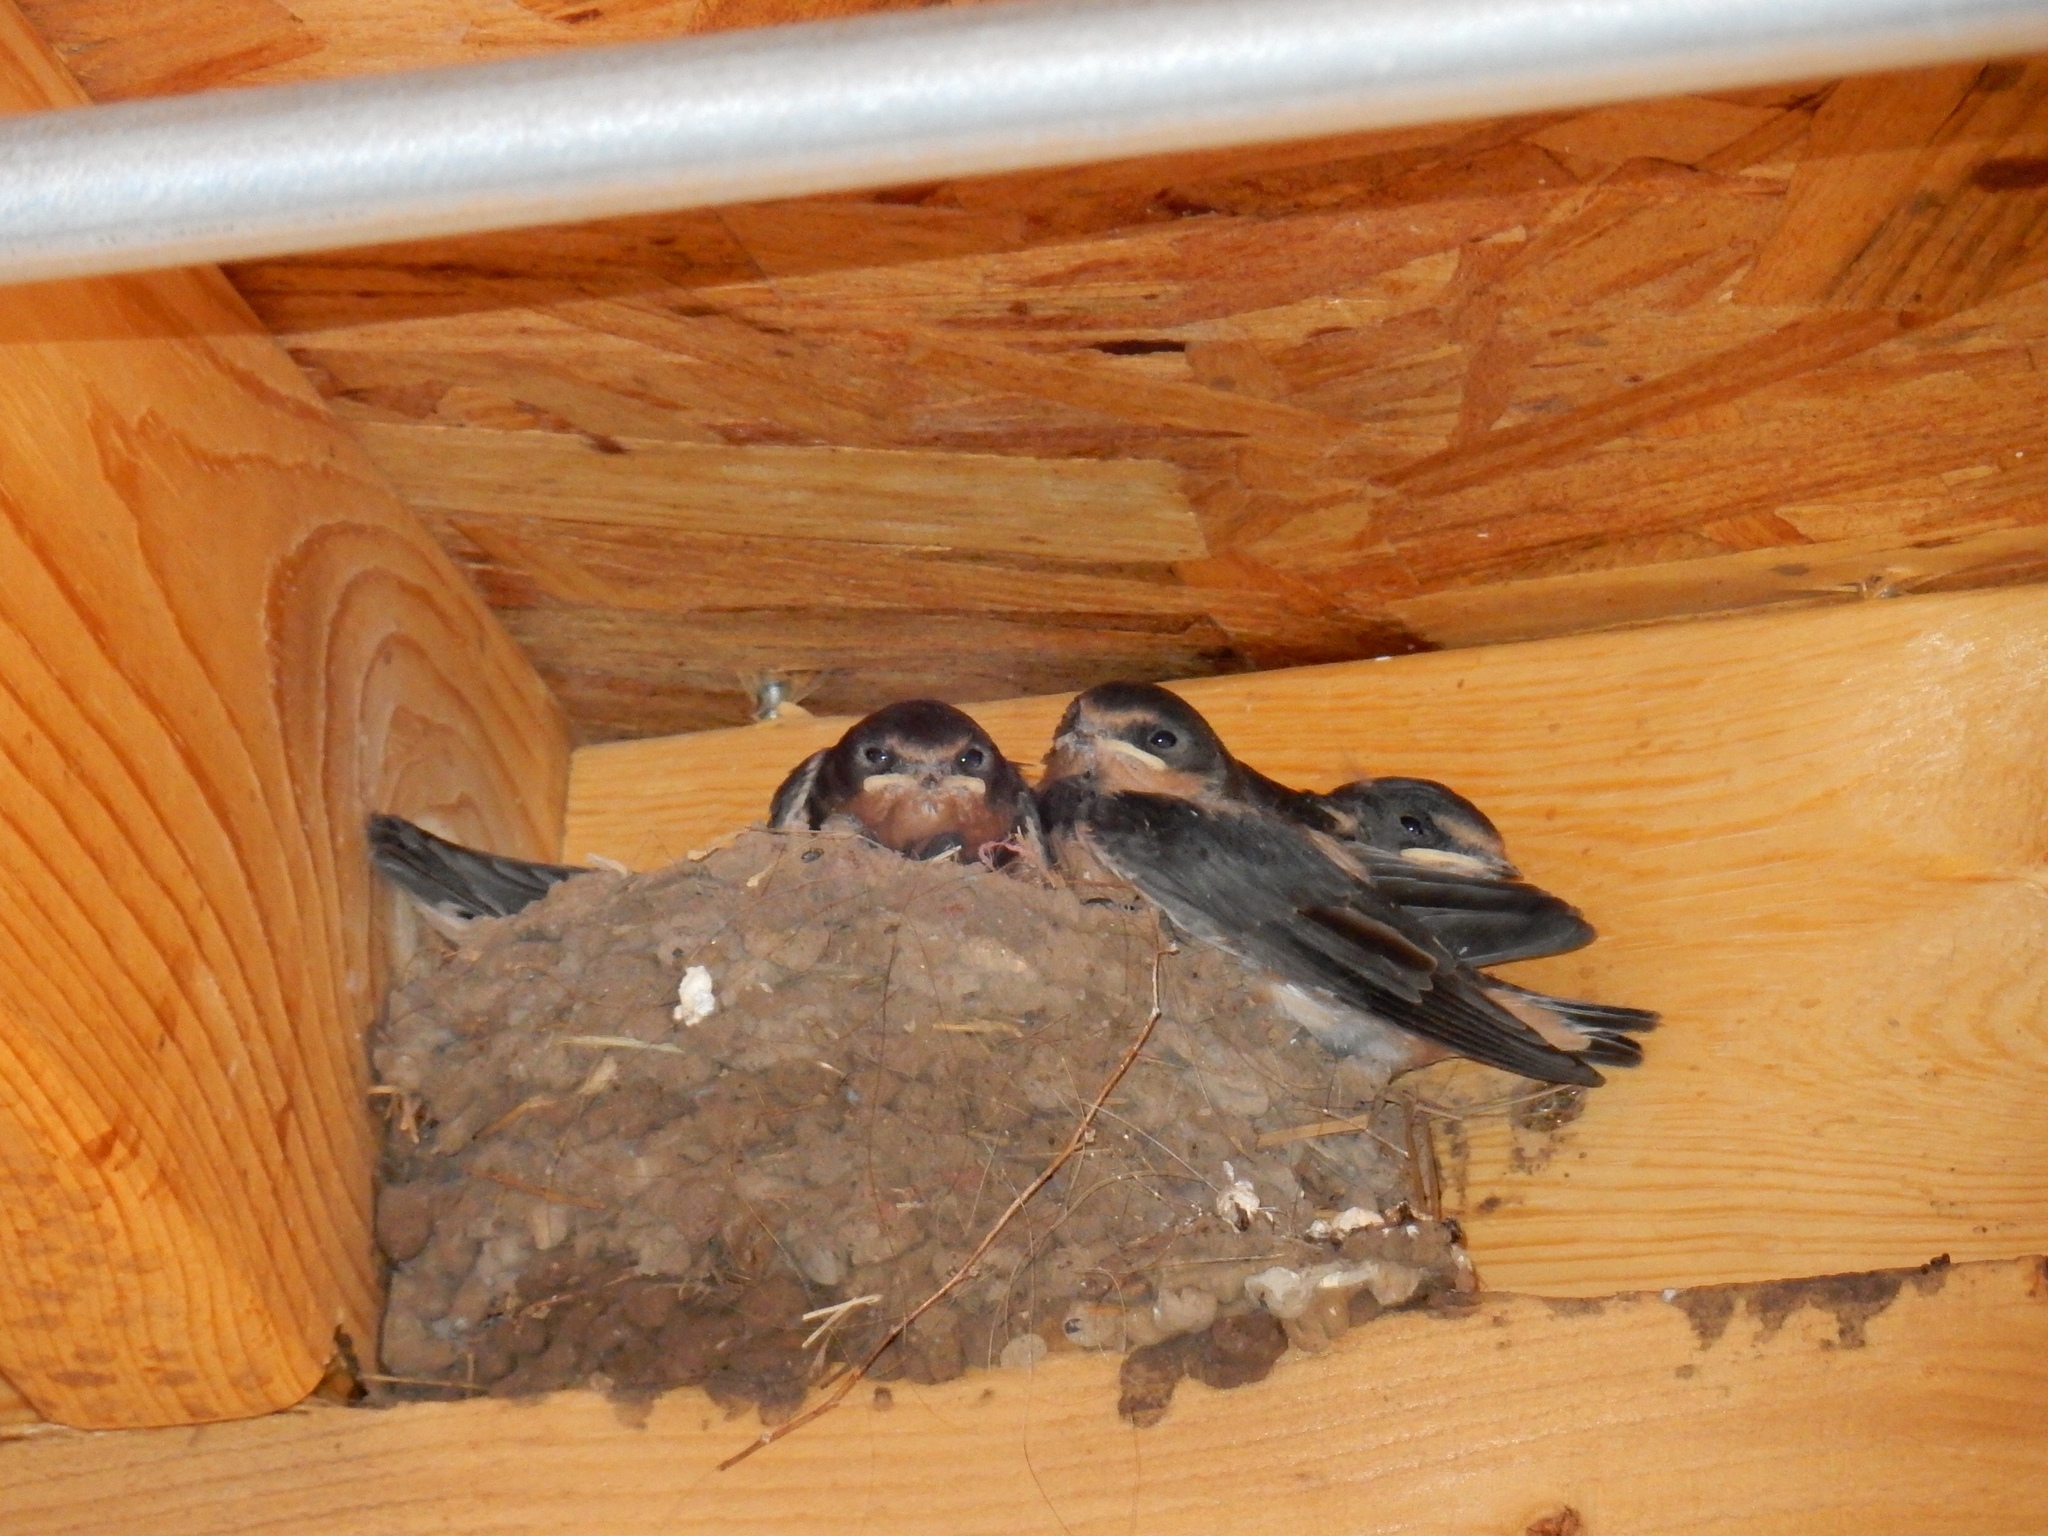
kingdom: Animalia
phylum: Chordata
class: Aves
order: Passeriformes
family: Hirundinidae
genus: Hirundo
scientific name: Hirundo rustica
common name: Barn swallow
